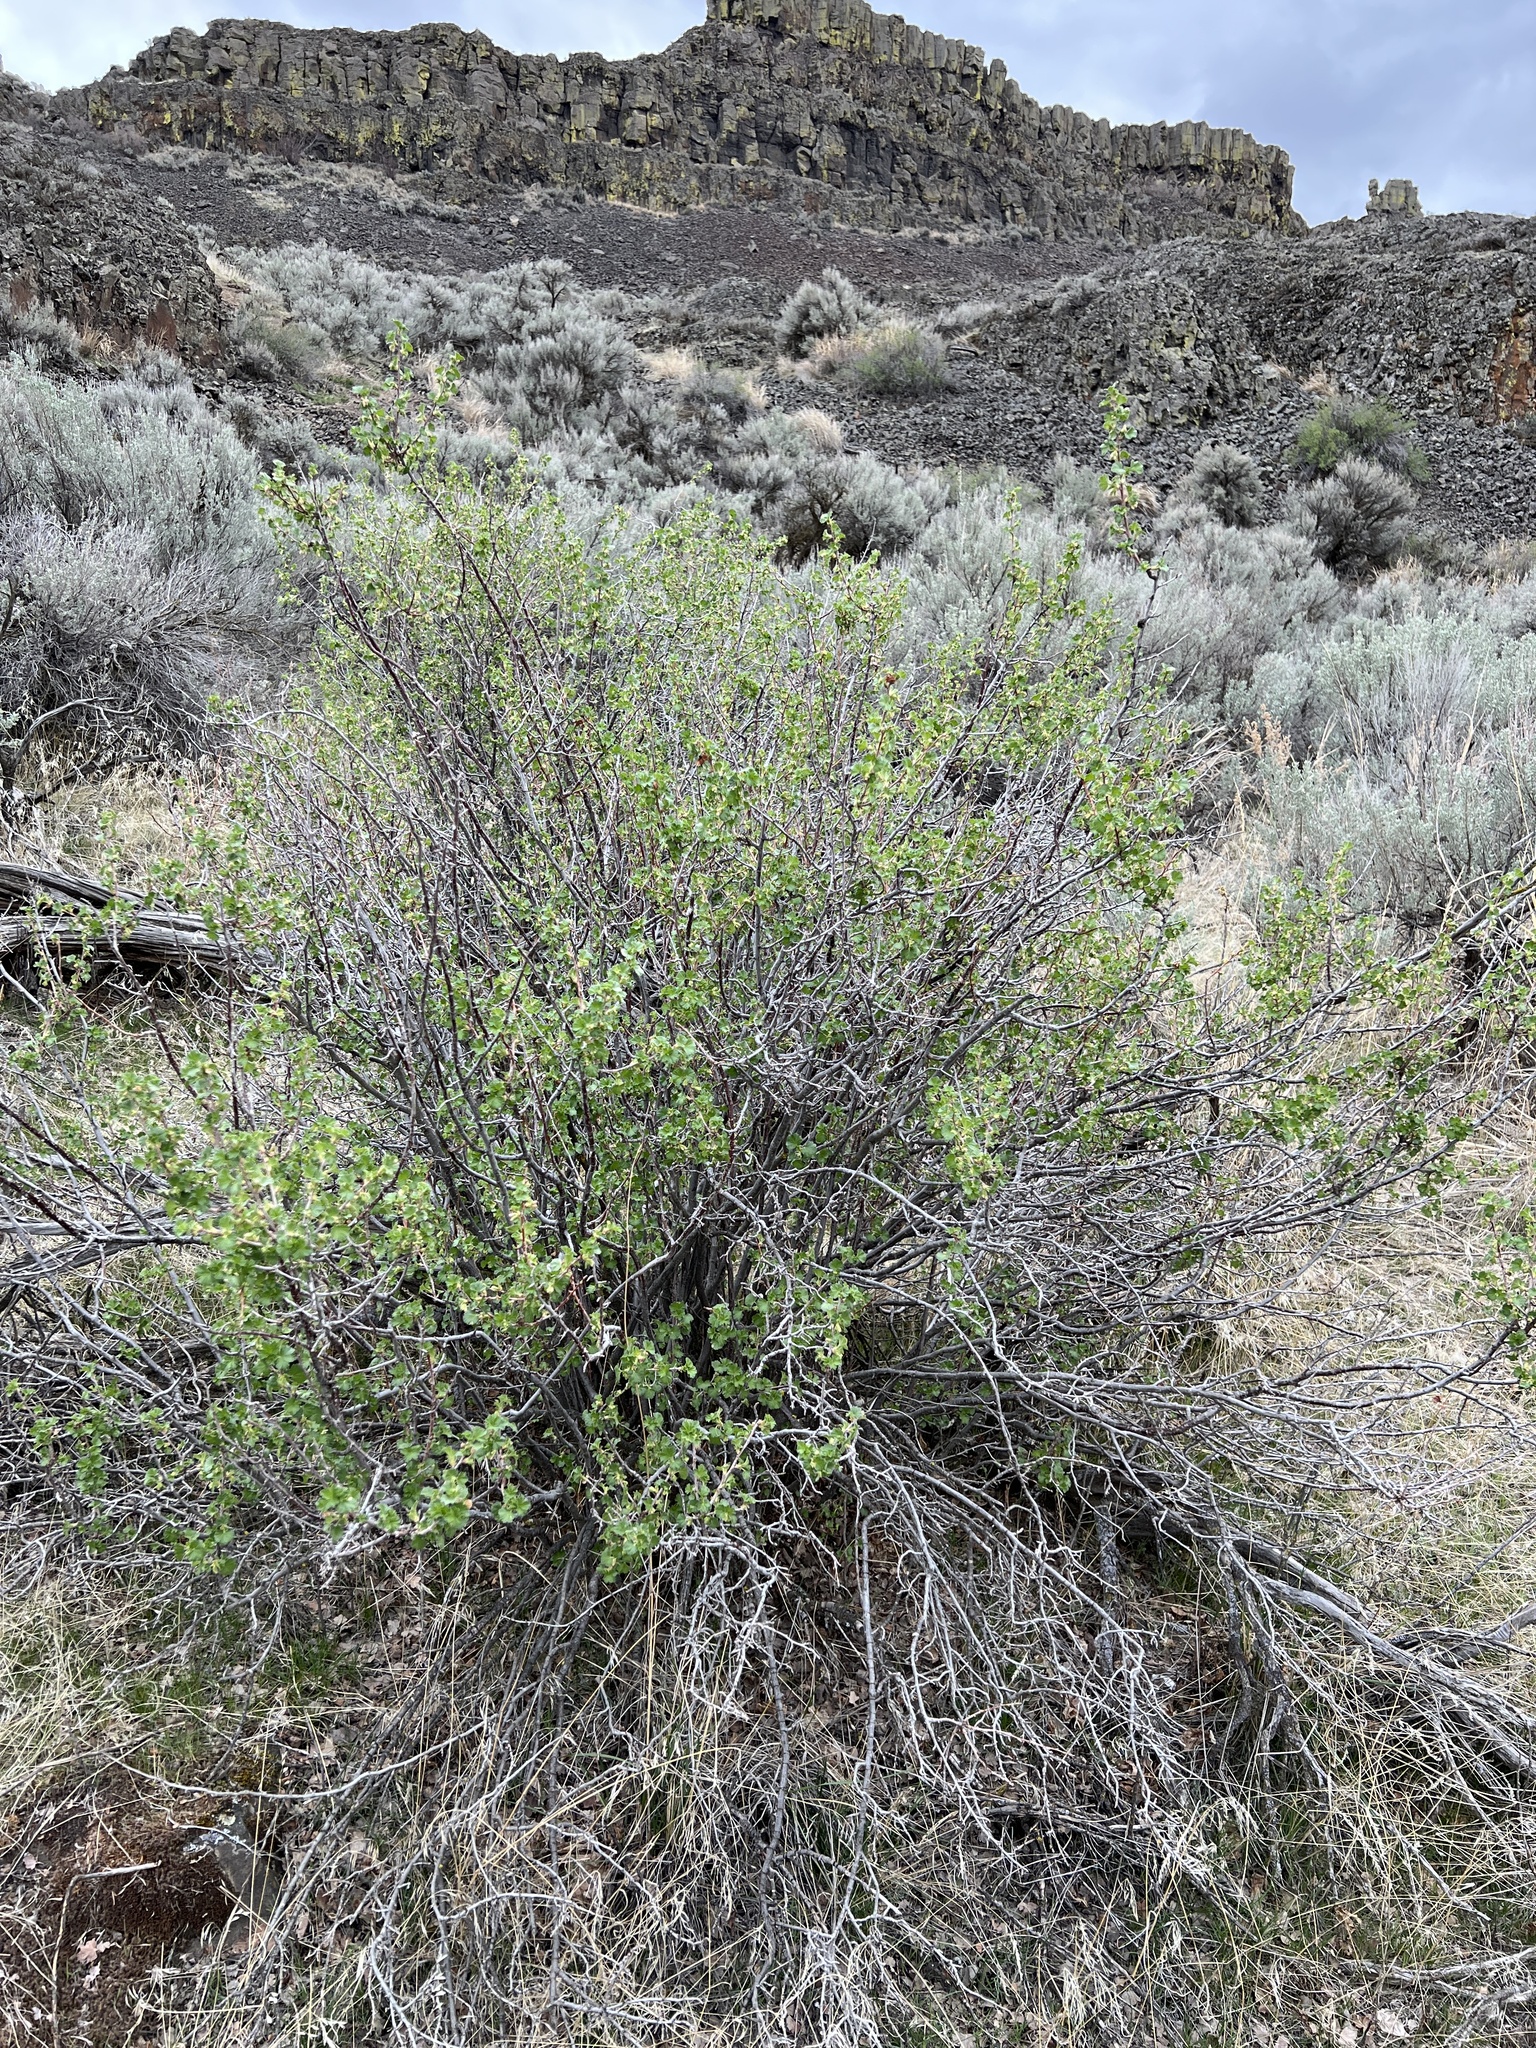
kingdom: Plantae
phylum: Tracheophyta
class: Magnoliopsida
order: Saxifragales
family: Grossulariaceae
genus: Ribes
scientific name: Ribes cereum
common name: Wax currant
